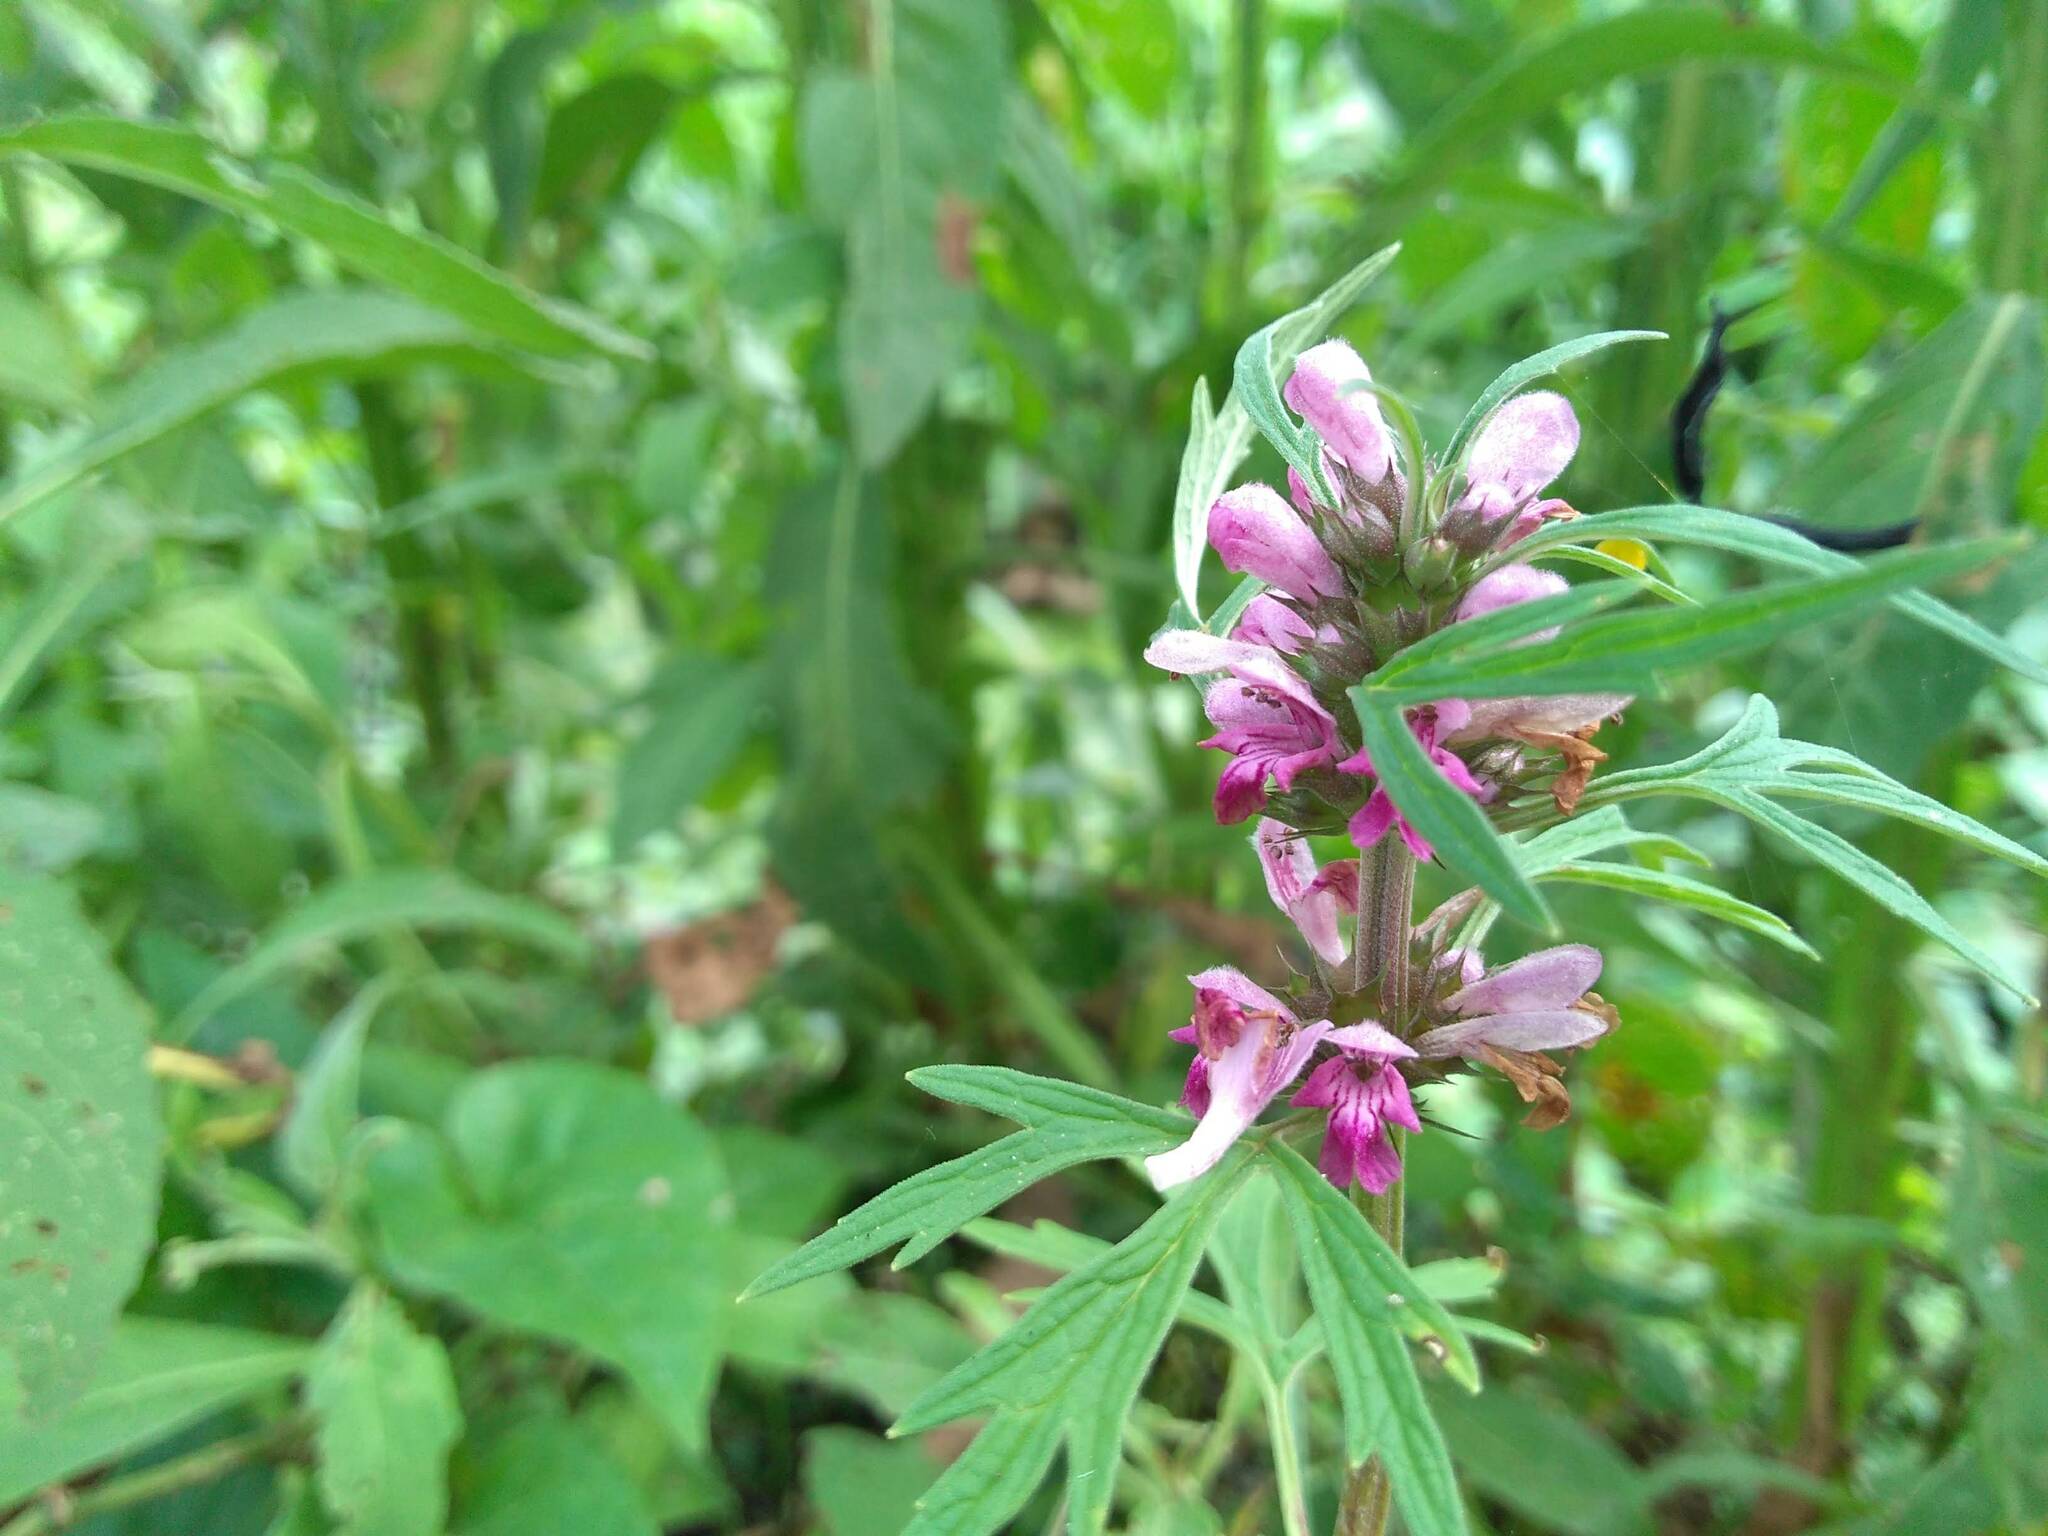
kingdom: Plantae
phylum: Tracheophyta
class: Magnoliopsida
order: Lamiales
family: Lamiaceae
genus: Leonurus
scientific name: Leonurus japonicus
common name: Honeyweed
